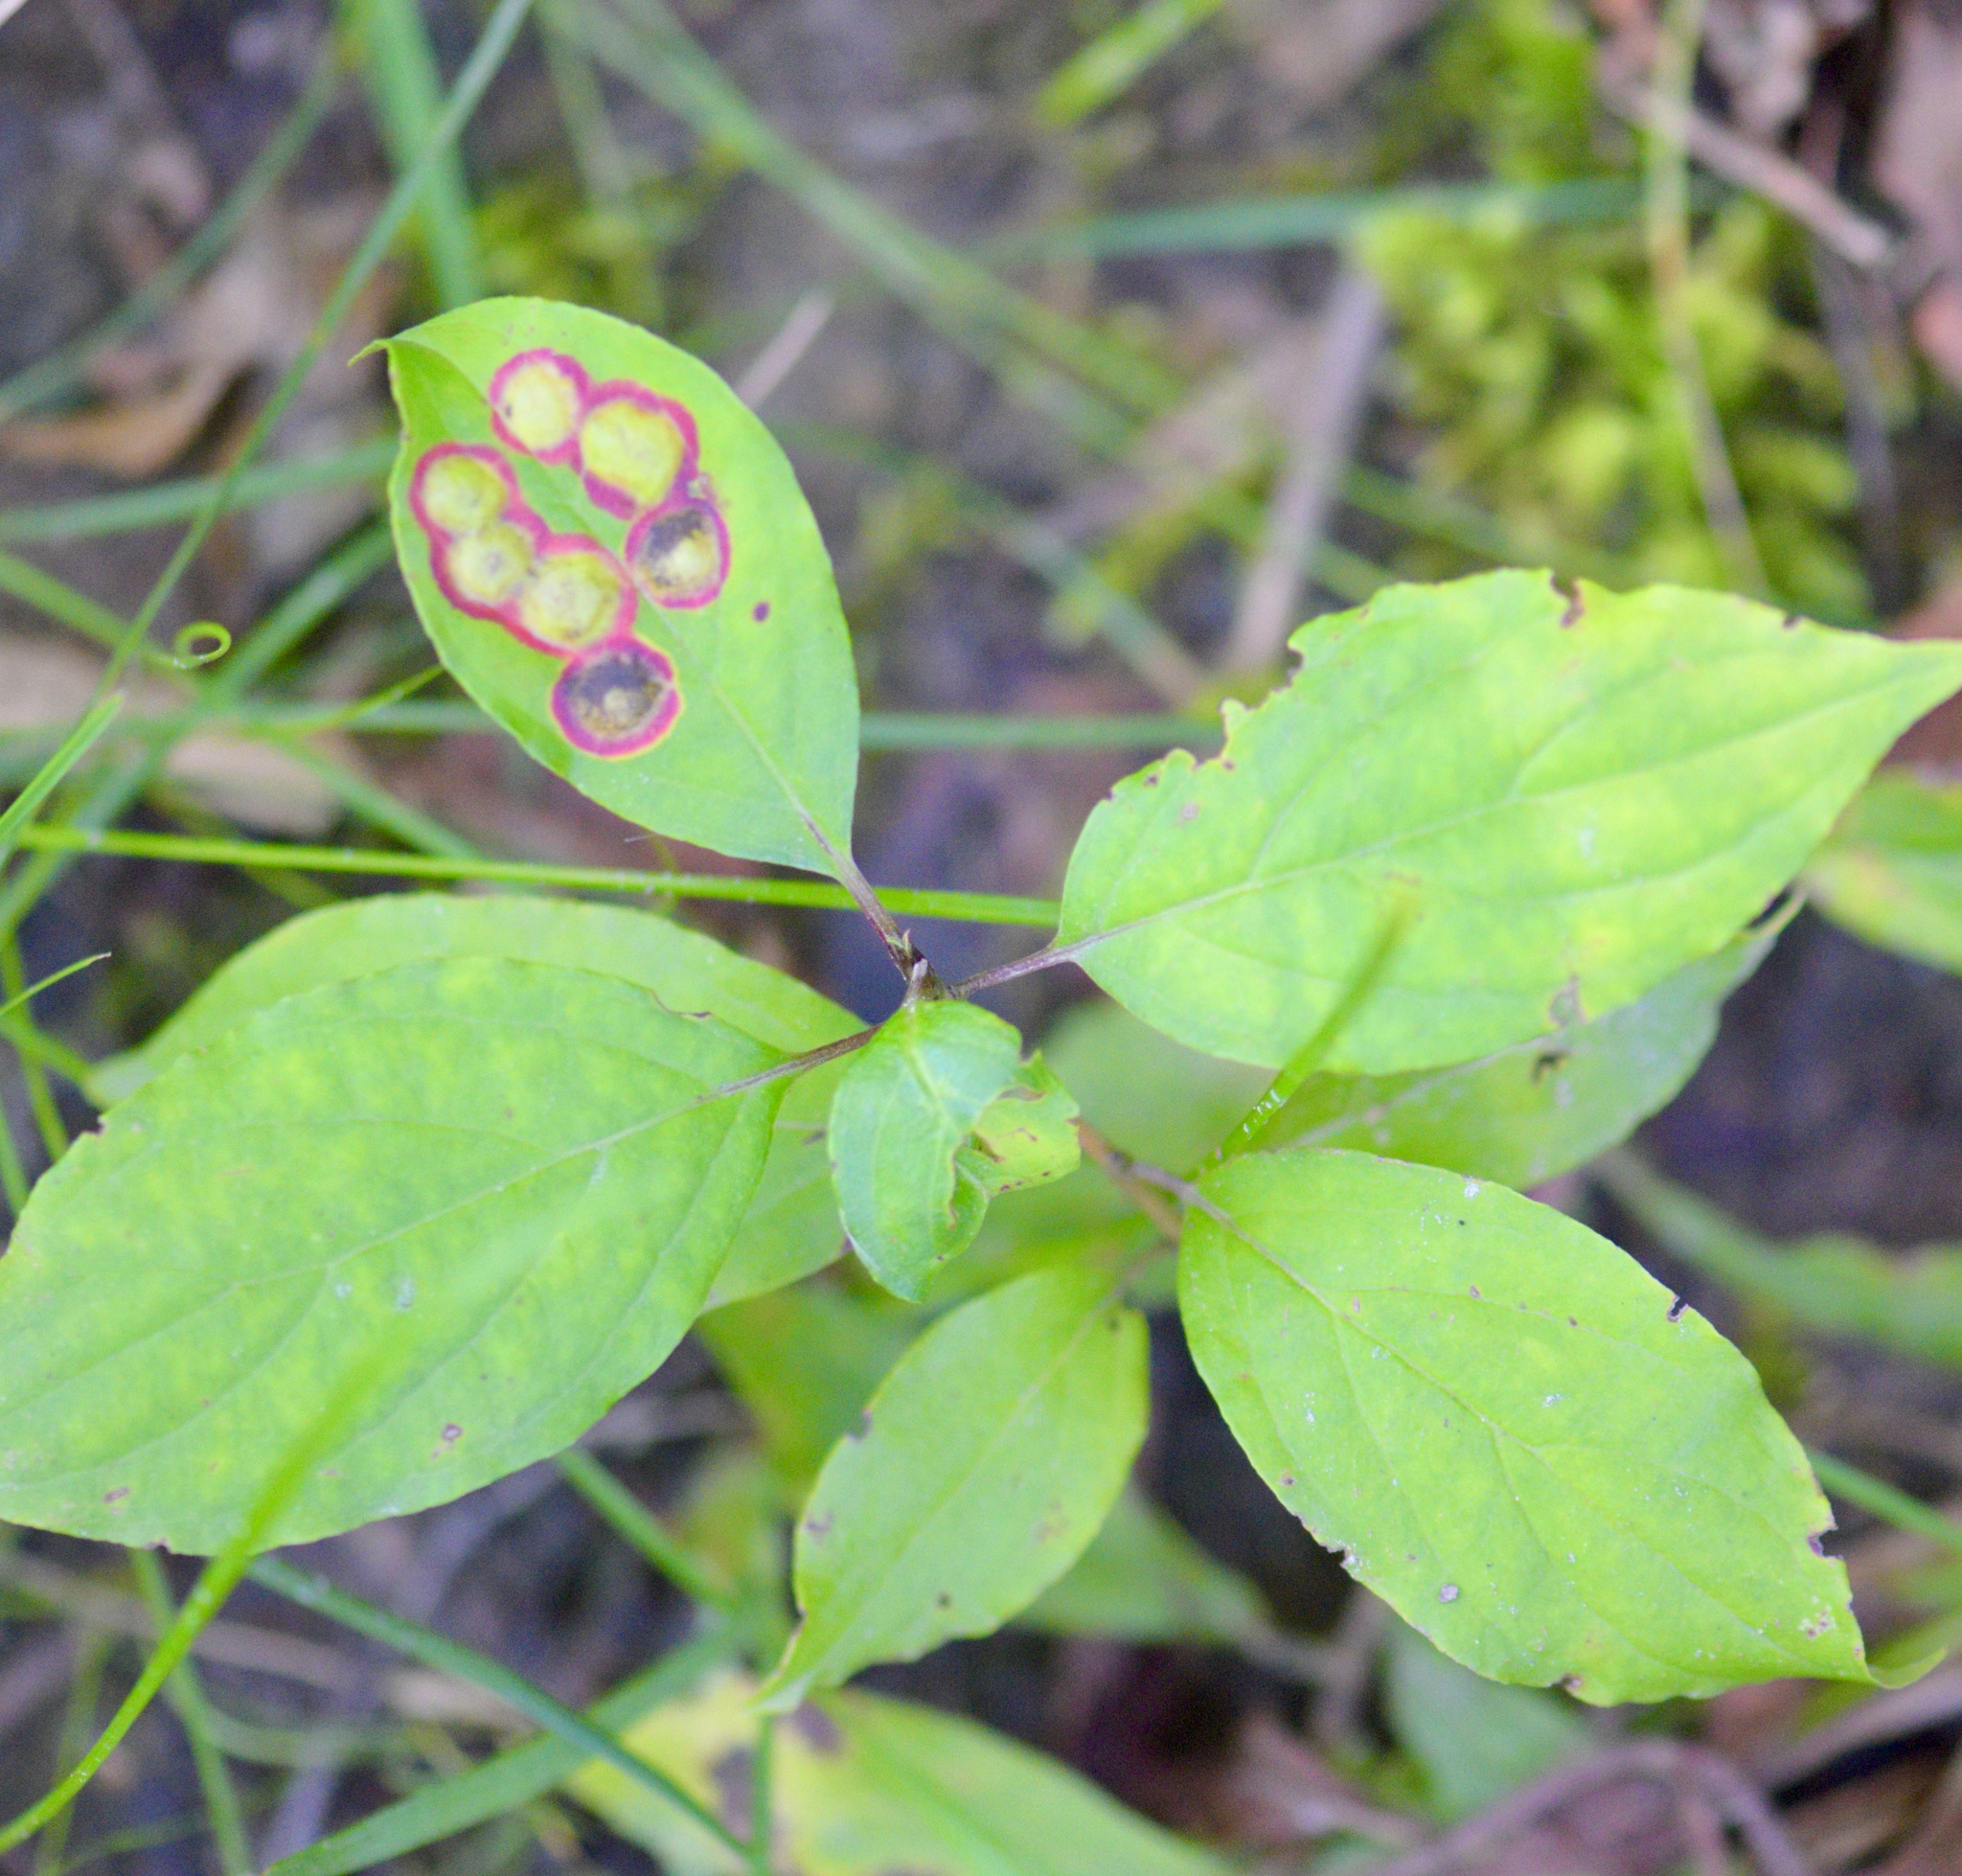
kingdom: Animalia
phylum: Arthropoda
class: Insecta
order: Diptera
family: Cecidomyiidae
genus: Parallelodiplosis
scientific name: Parallelodiplosis subtruncata
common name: Dogwood eyespot gall midge
